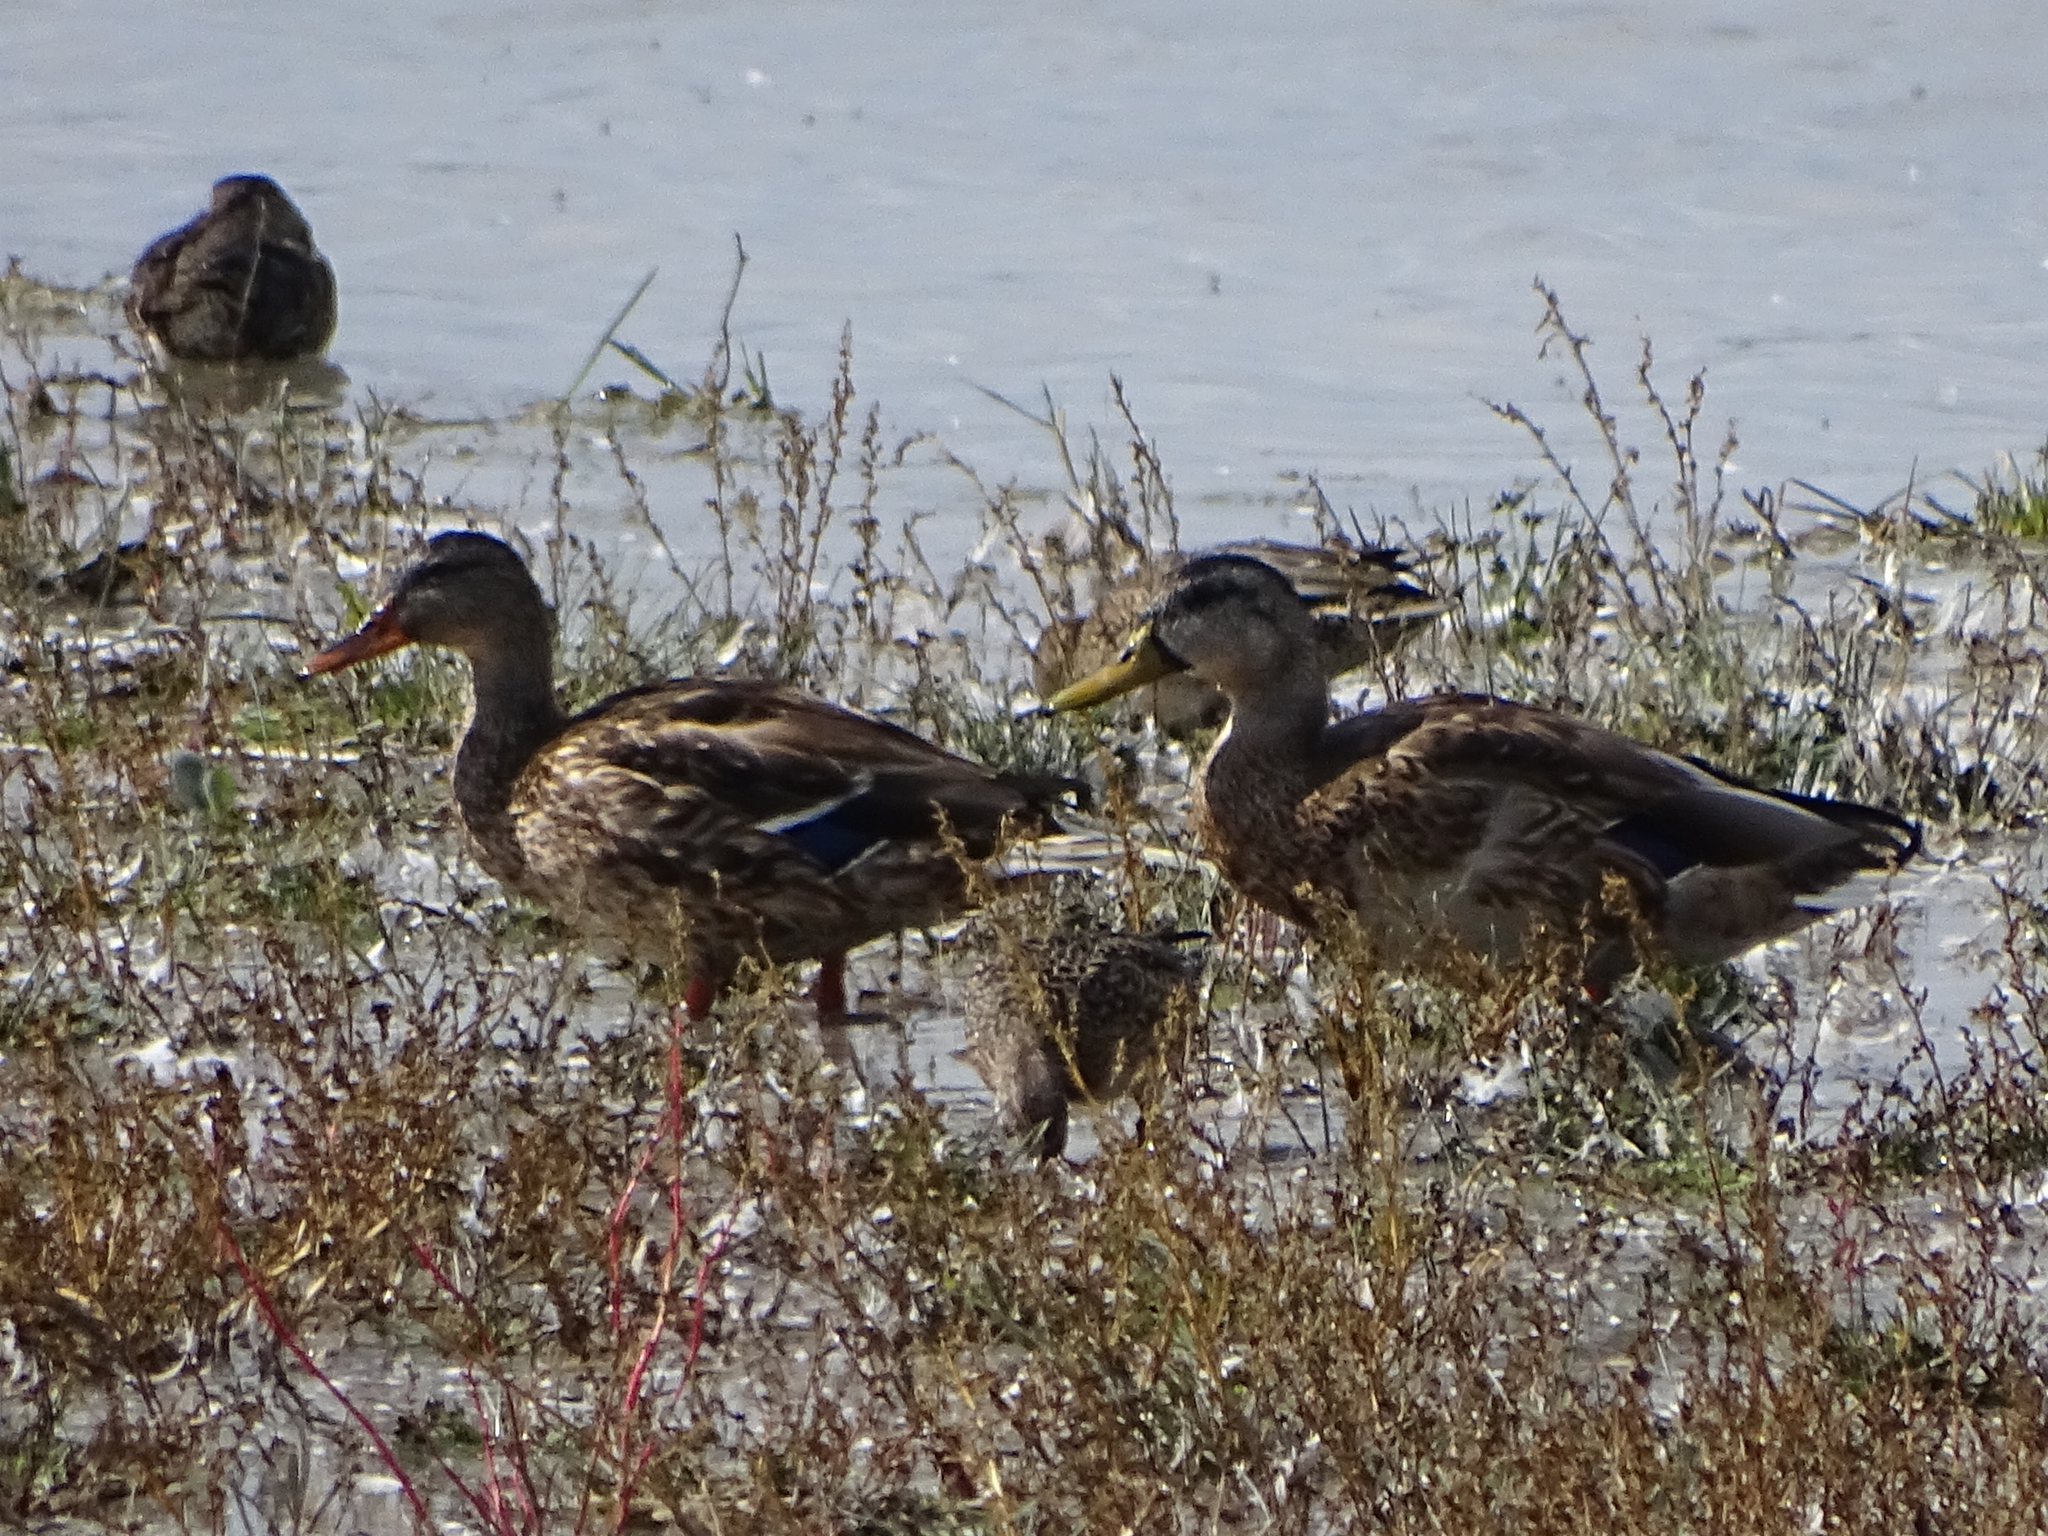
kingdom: Animalia
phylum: Chordata
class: Aves
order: Anseriformes
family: Anatidae
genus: Anas
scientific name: Anas platyrhynchos
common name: Mallard
